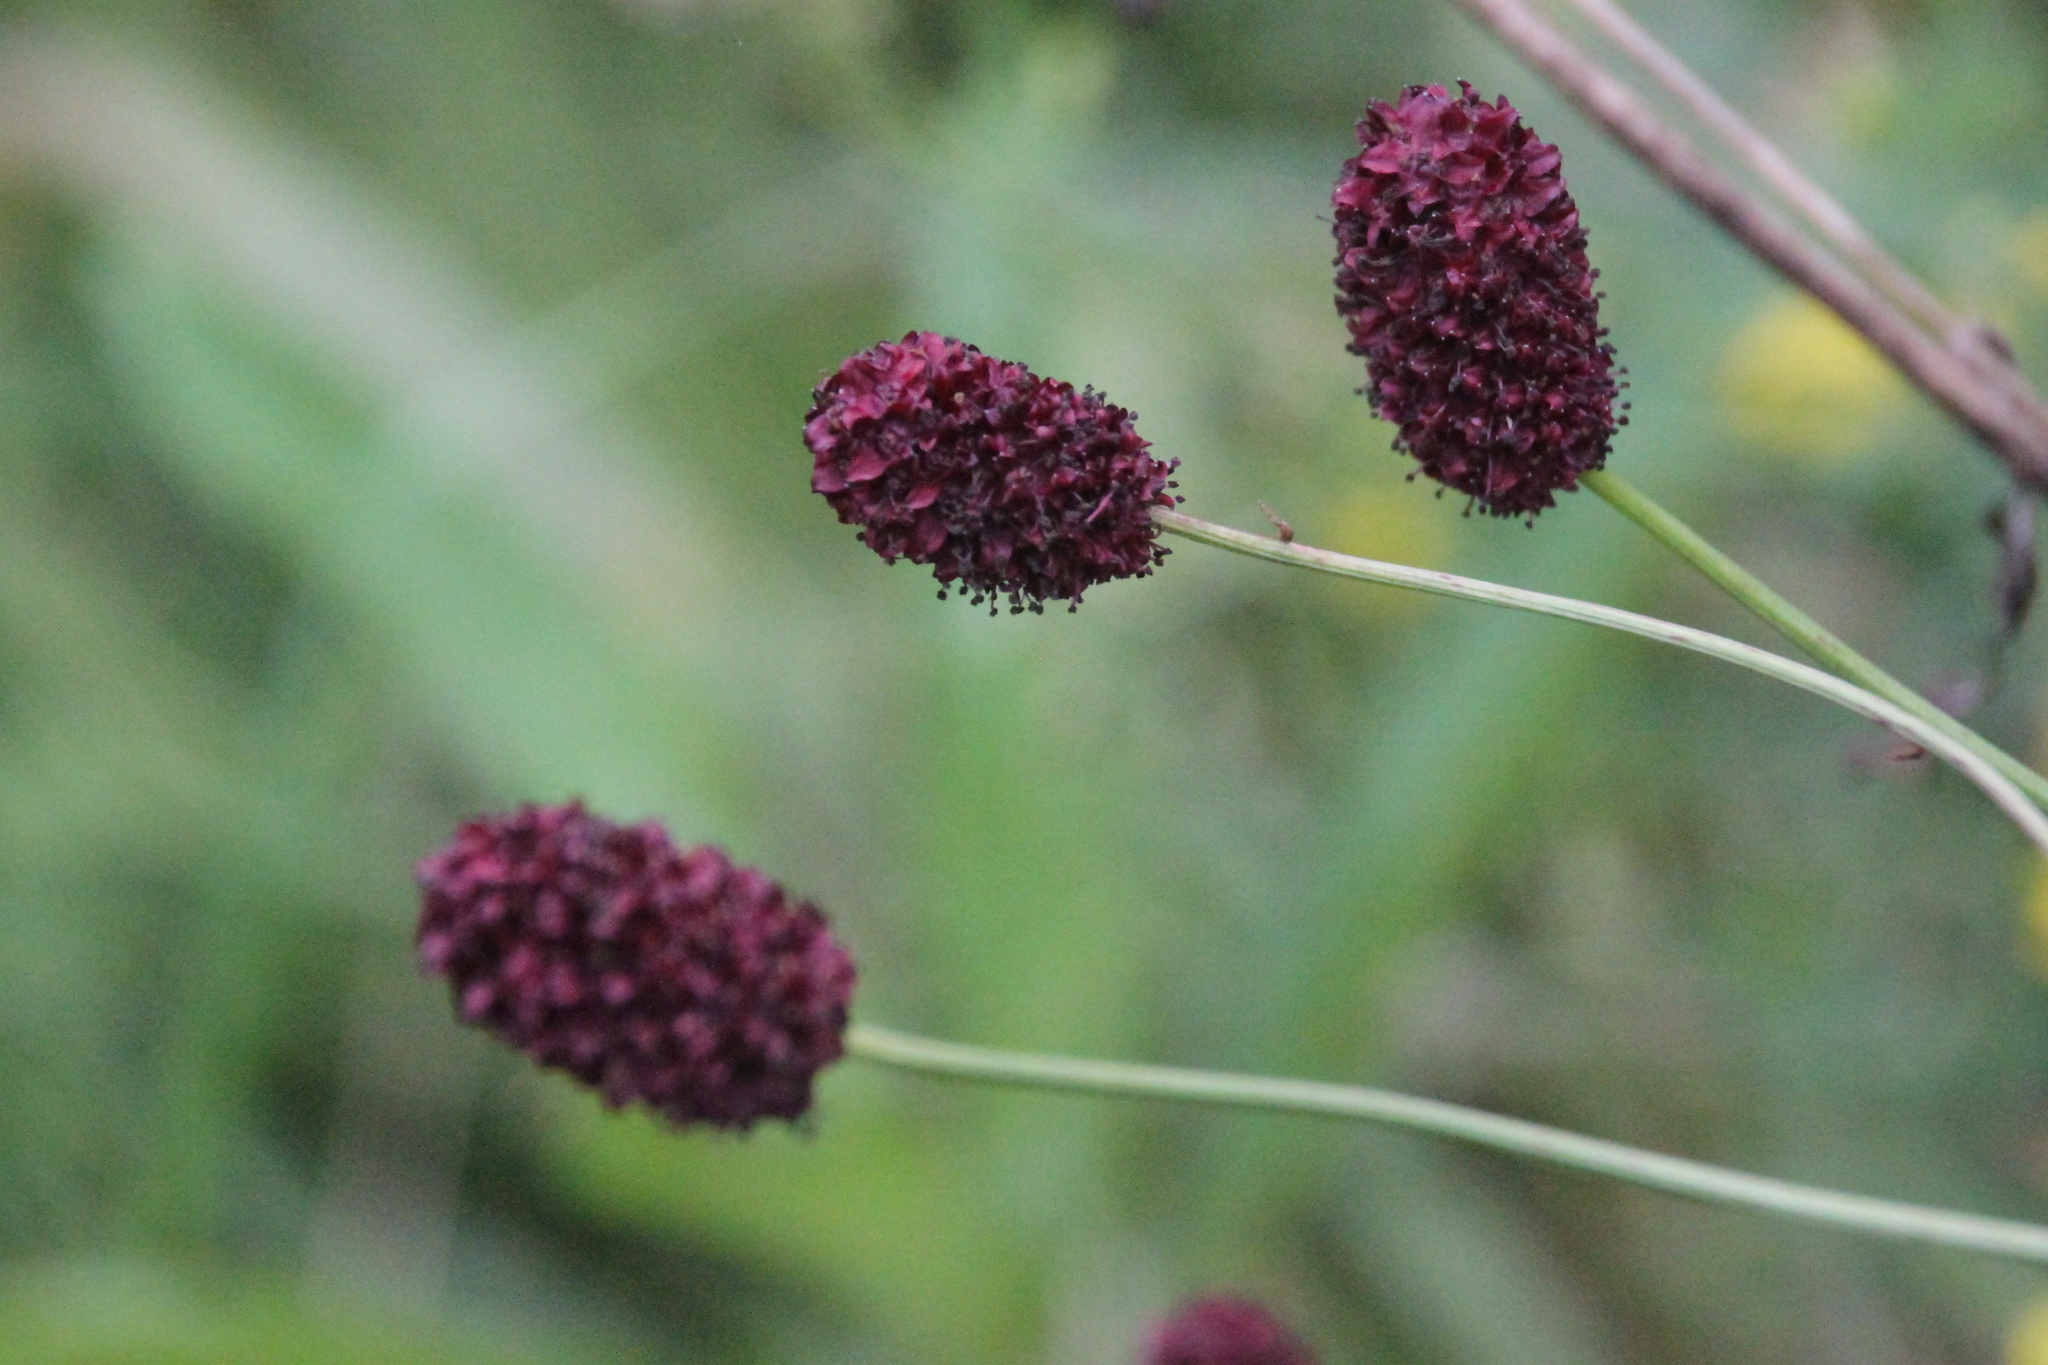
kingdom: Plantae
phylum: Tracheophyta
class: Magnoliopsida
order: Rosales
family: Rosaceae
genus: Sanguisorba
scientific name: Sanguisorba officinalis
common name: Great burnet
